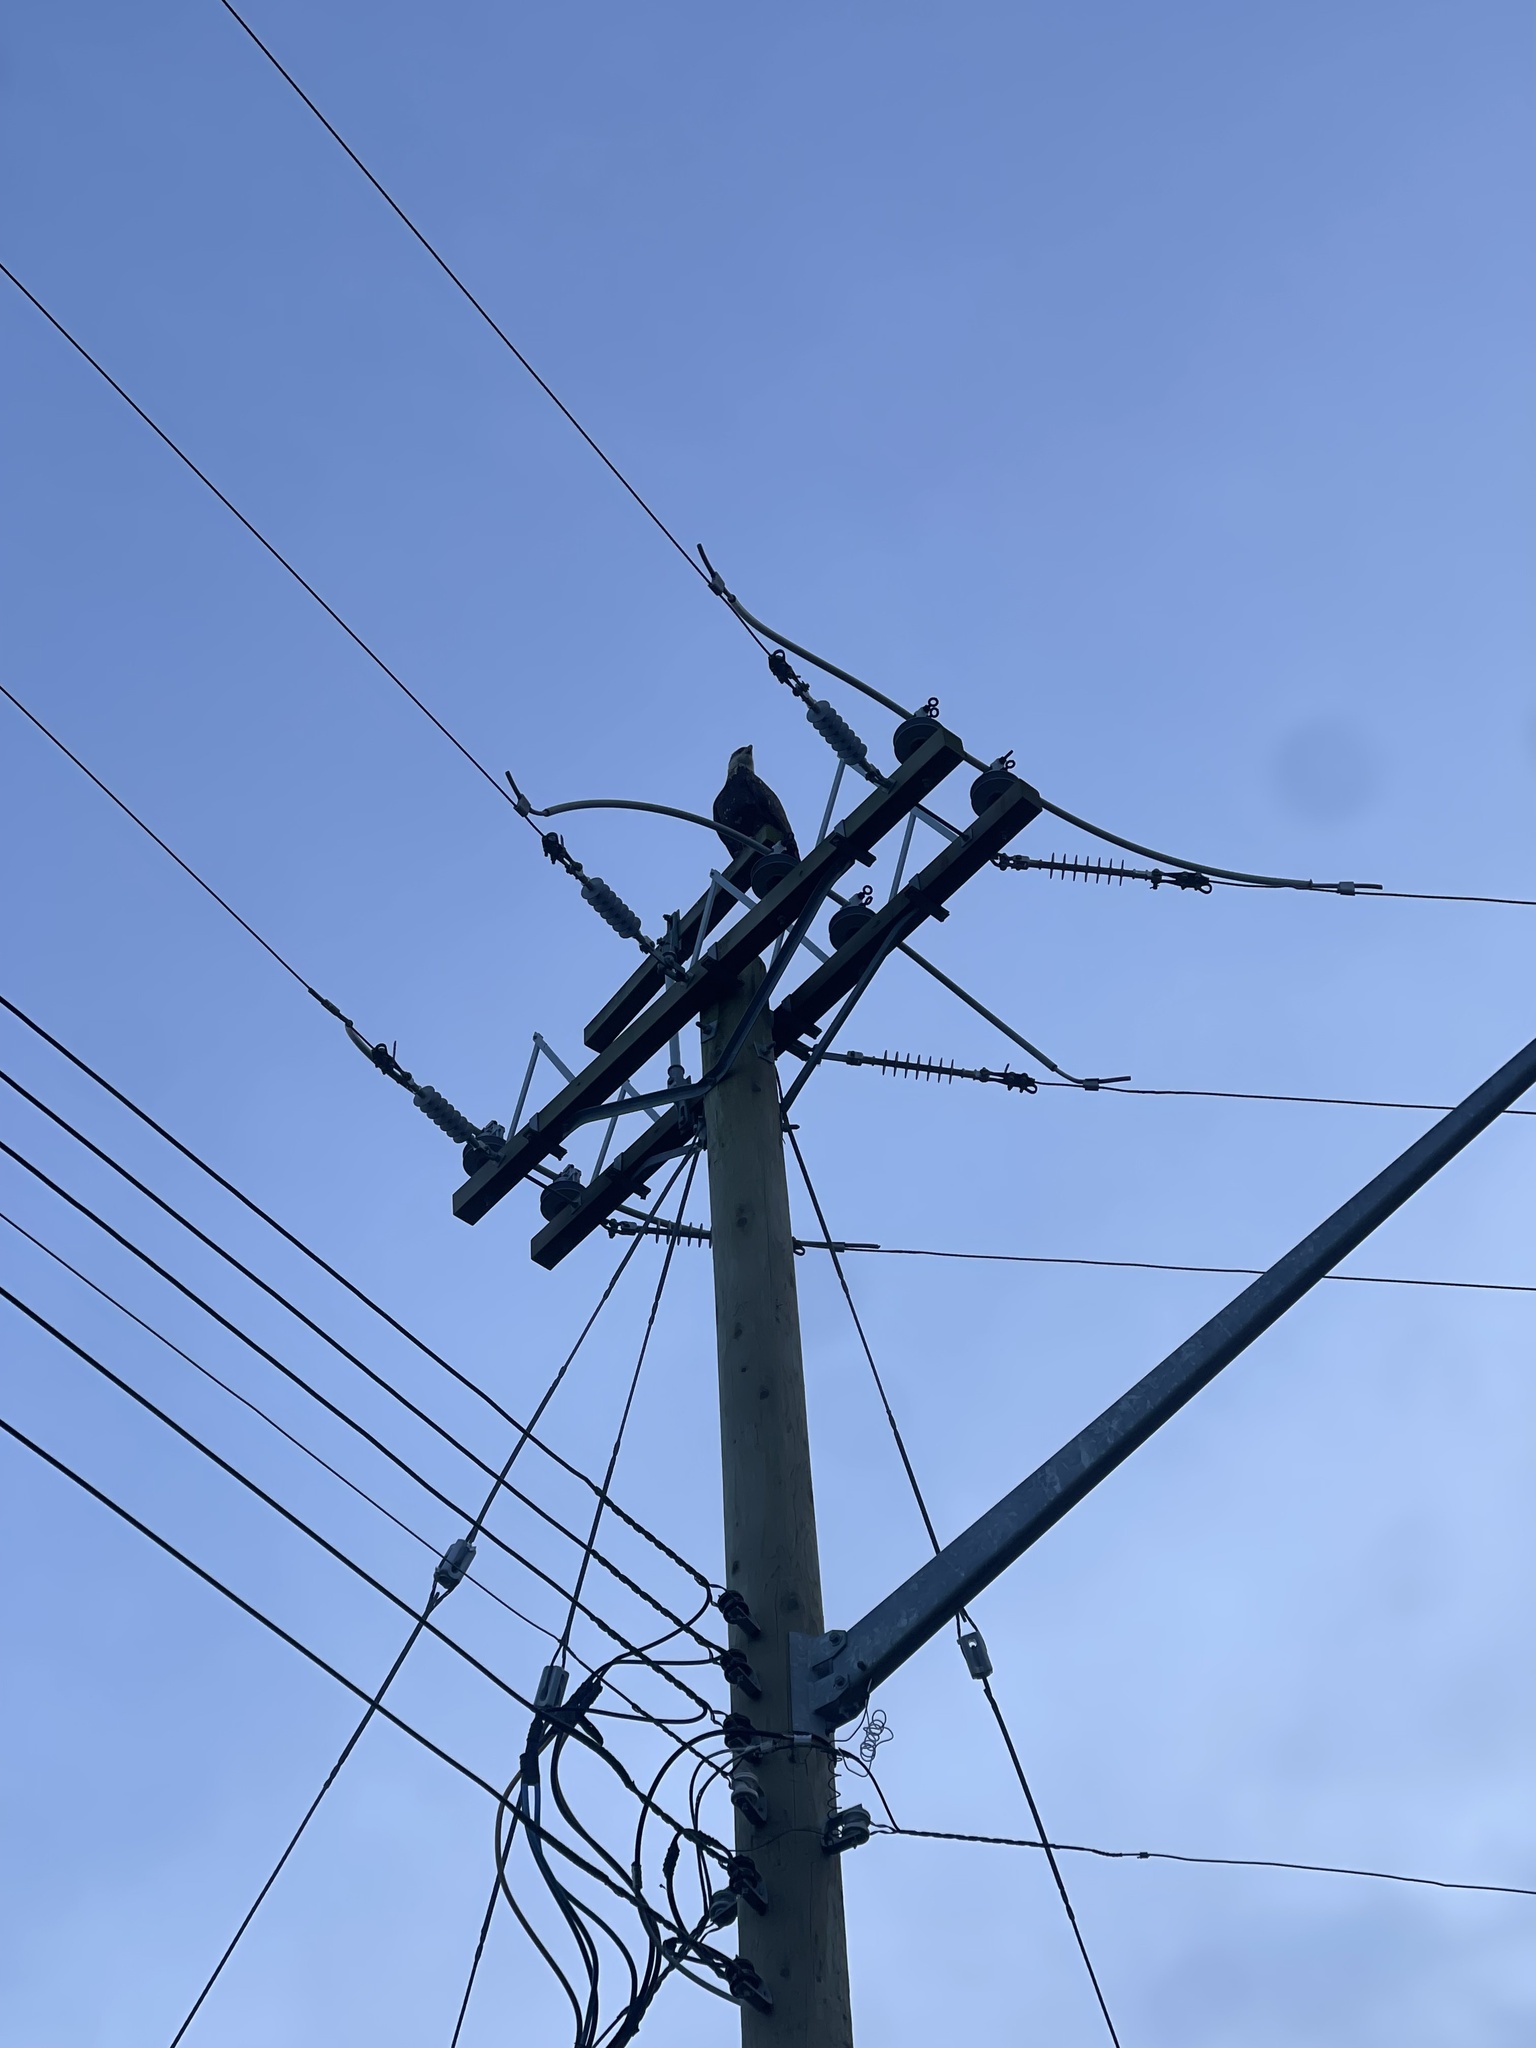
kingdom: Animalia
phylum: Chordata
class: Aves
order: Accipitriformes
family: Accipitridae
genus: Haliaeetus
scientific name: Haliaeetus leucocephalus
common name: Bald eagle
